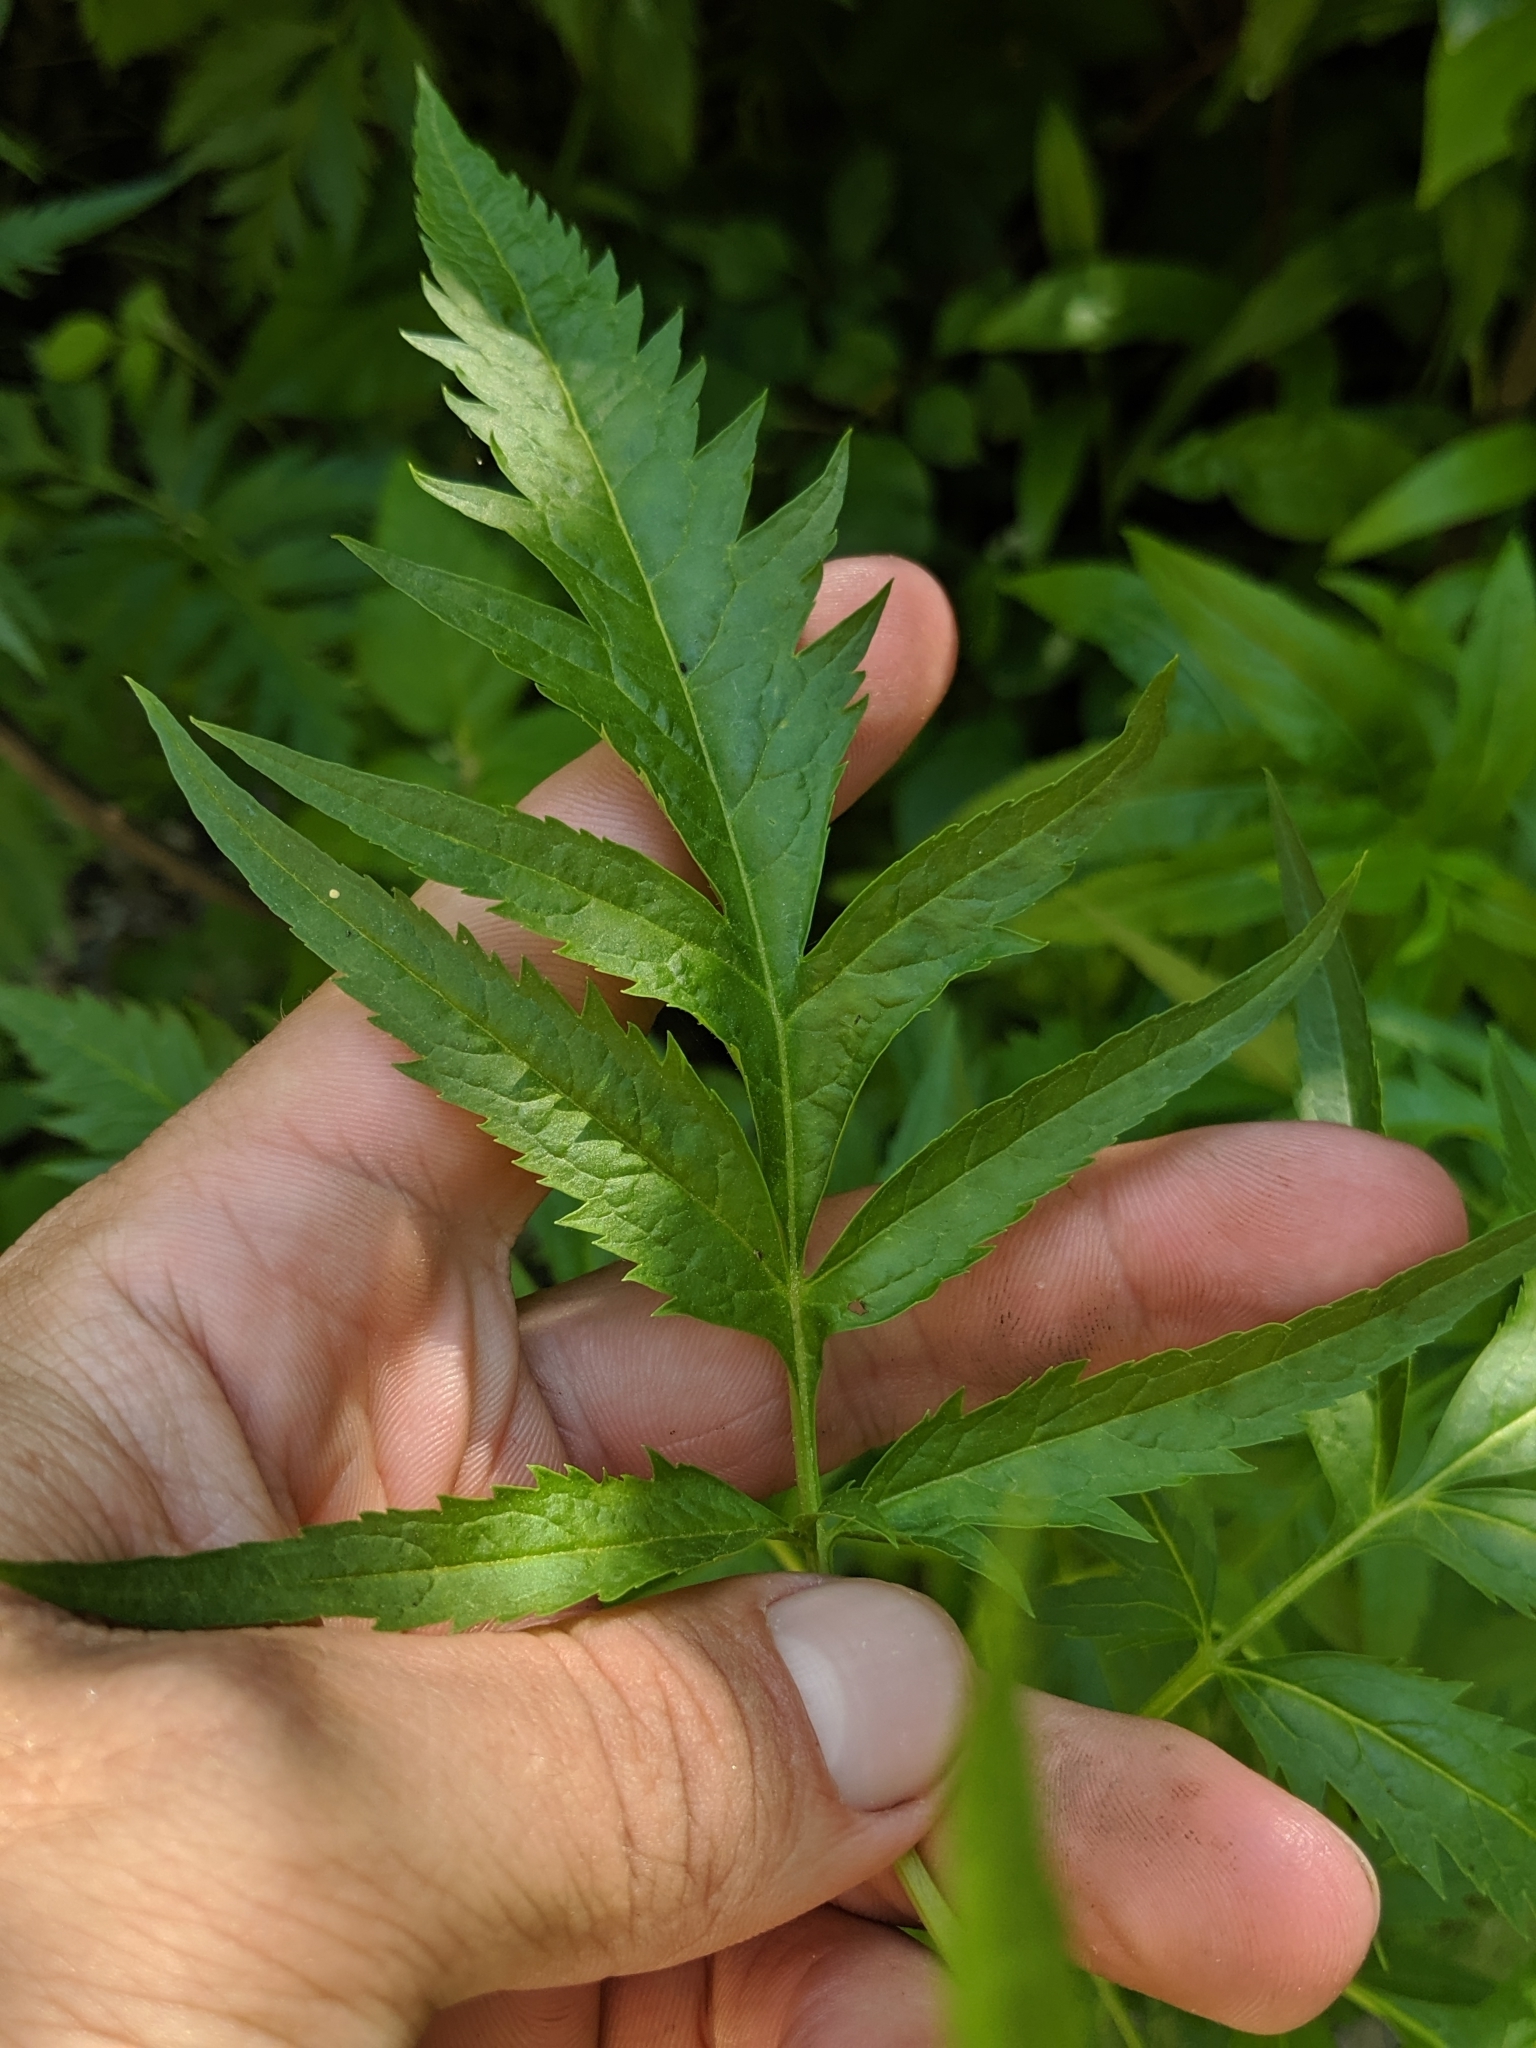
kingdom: Plantae
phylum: Tracheophyta
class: Magnoliopsida
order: Cucurbitales
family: Datiscaceae
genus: Datisca
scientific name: Datisca glomerata
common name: Durango-root
